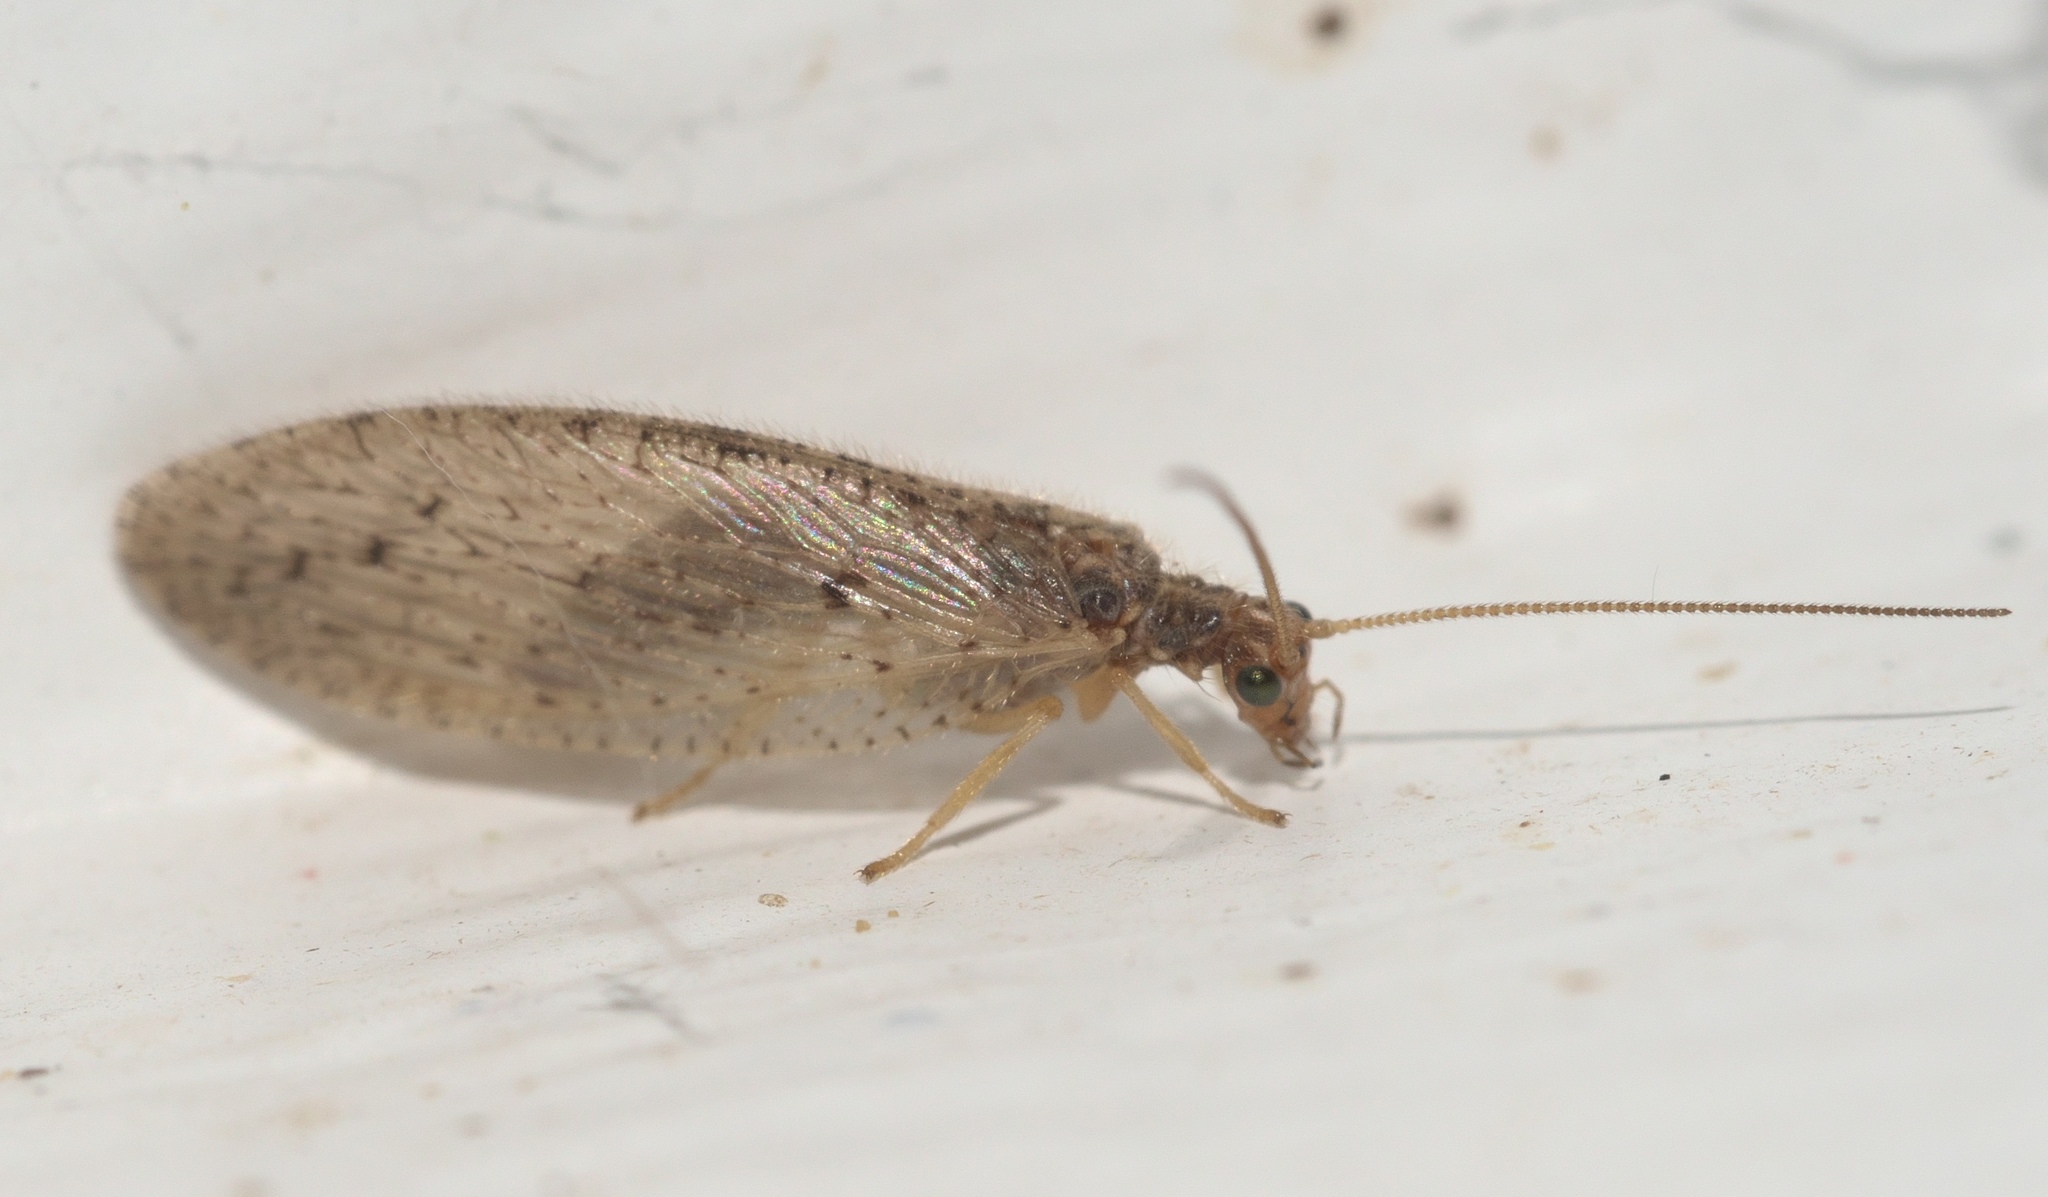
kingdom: Animalia
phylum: Arthropoda
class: Insecta
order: Neuroptera
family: Hemerobiidae
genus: Micromus
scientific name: Micromus subanticus
